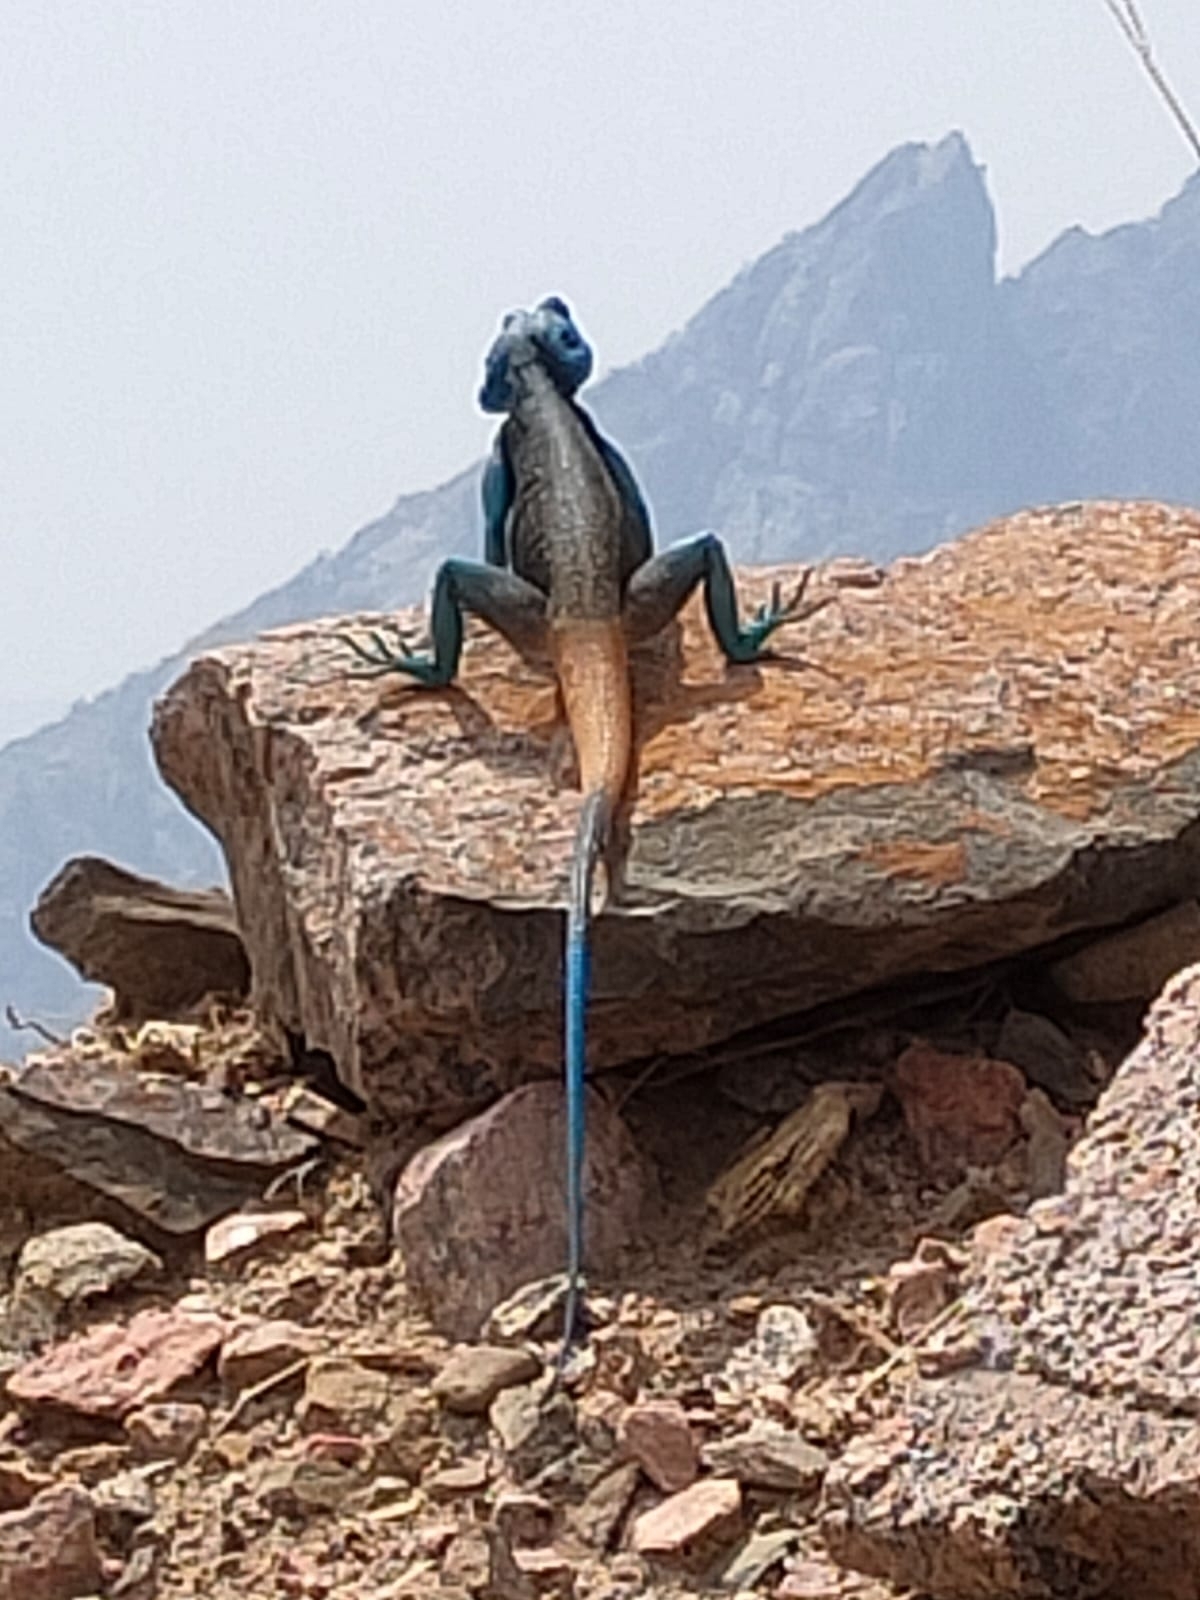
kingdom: Animalia
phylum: Chordata
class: Squamata
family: Agamidae
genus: Acanthocercus
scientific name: Acanthocercus adramitanus
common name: Anderson's rock agama
